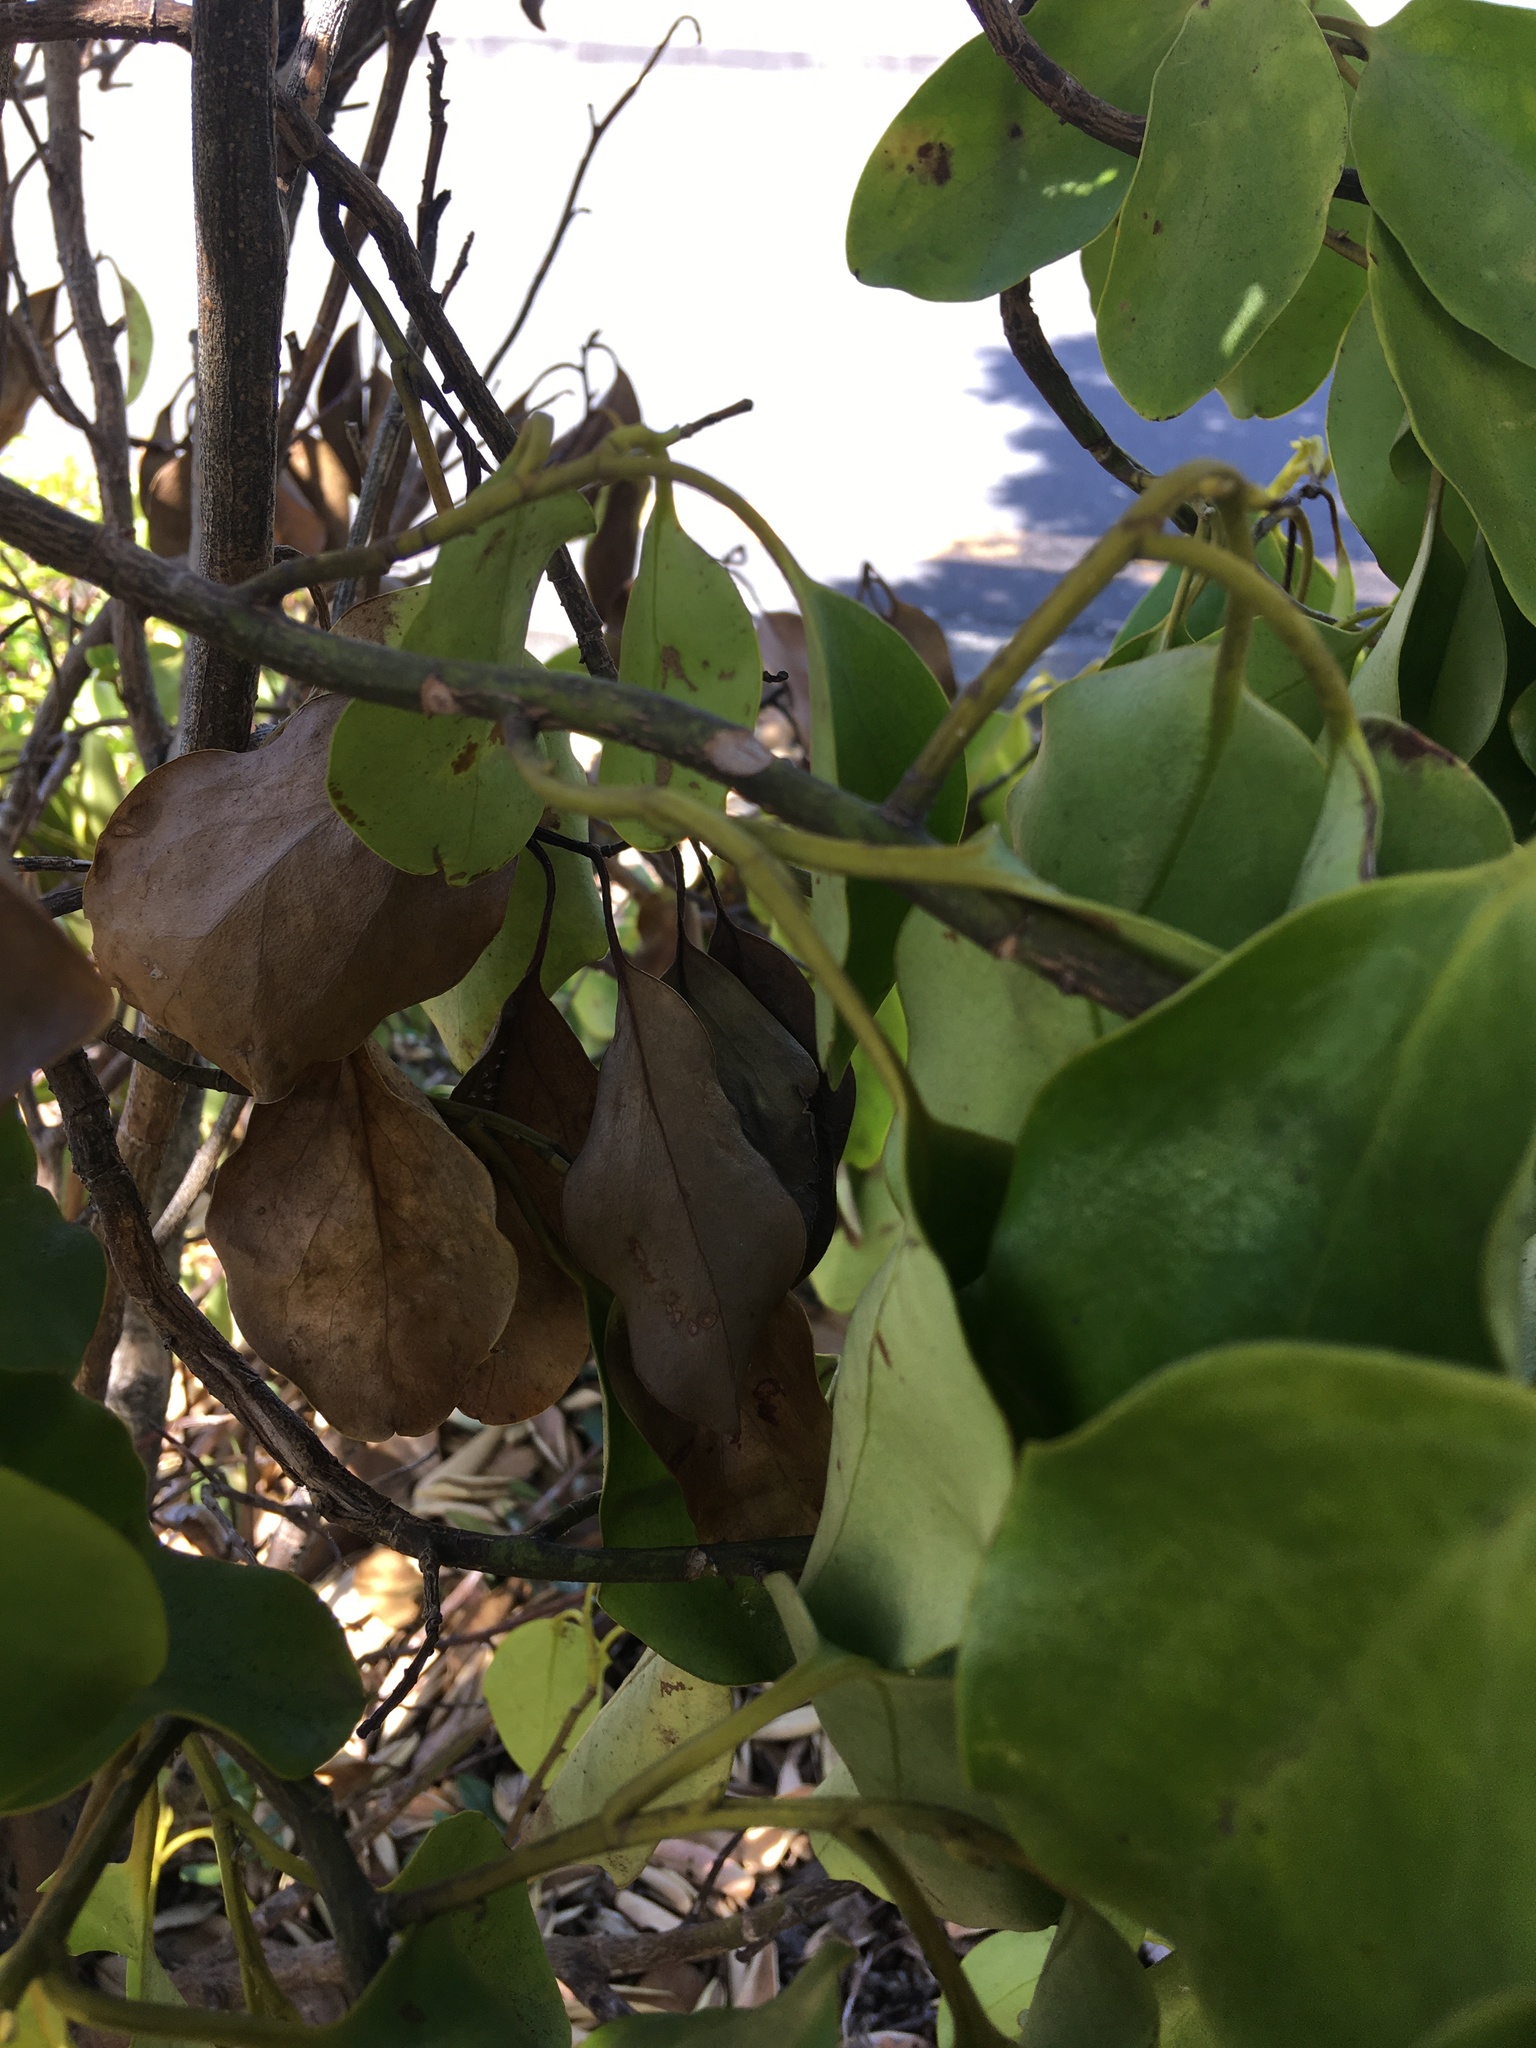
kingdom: Plantae
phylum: Tracheophyta
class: Magnoliopsida
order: Apiales
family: Griseliniaceae
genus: Griselinia
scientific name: Griselinia littoralis
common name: New zealand broadleaf
